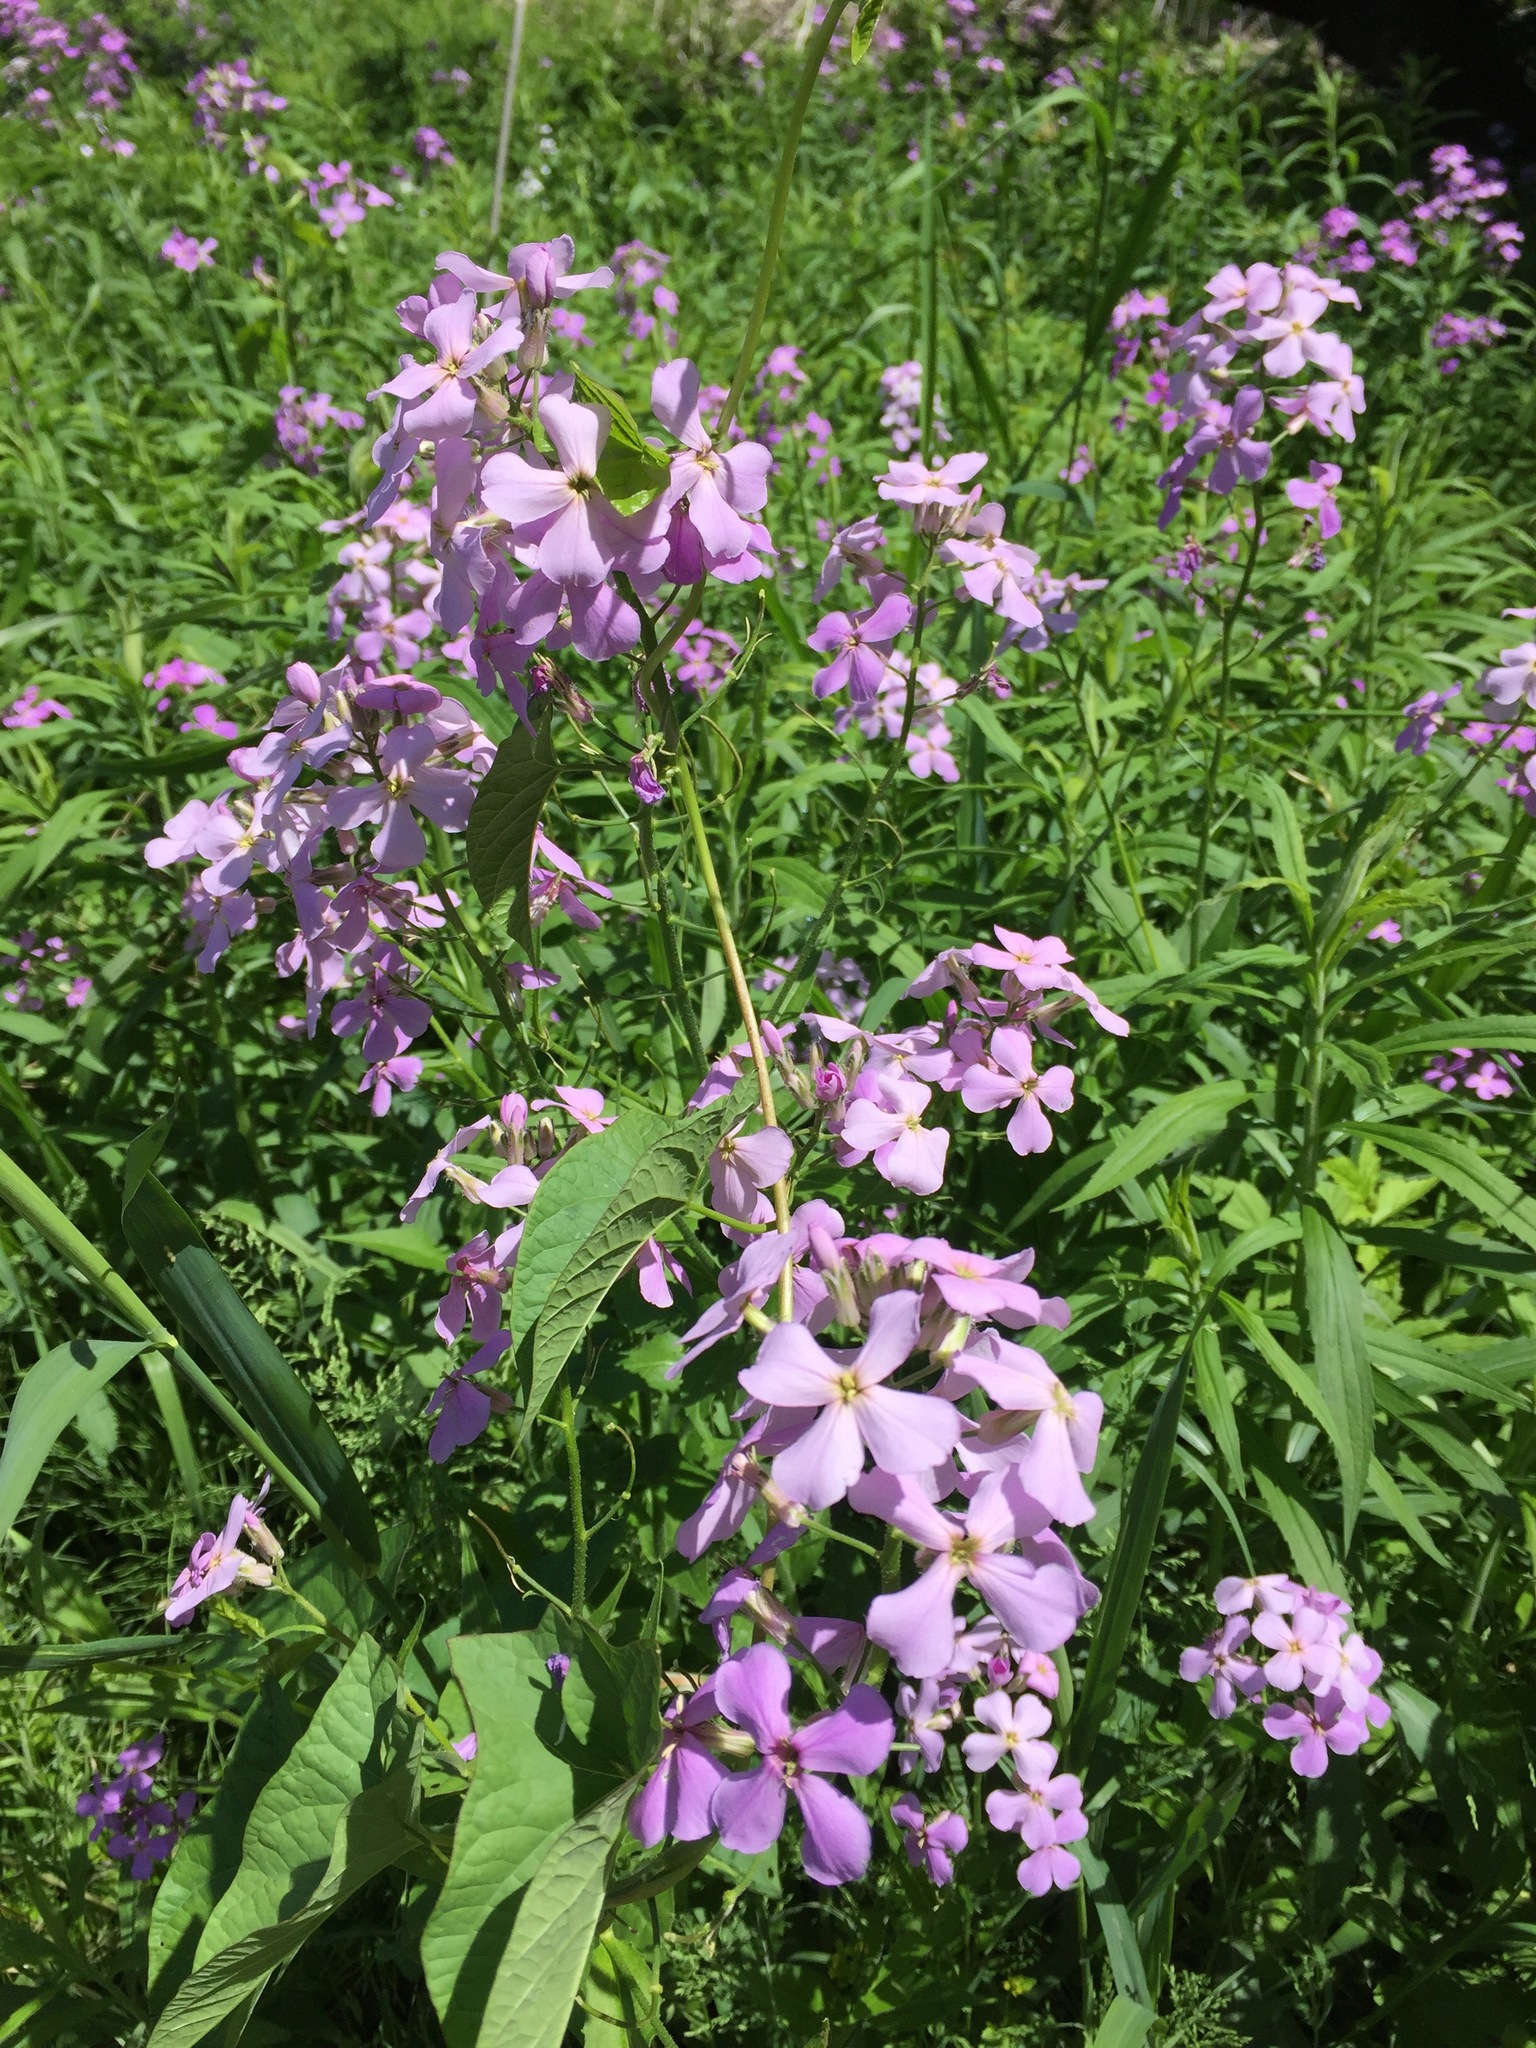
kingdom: Plantae
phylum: Tracheophyta
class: Magnoliopsida
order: Brassicales
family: Brassicaceae
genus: Hesperis
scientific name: Hesperis matronalis
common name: Dame's-violet
